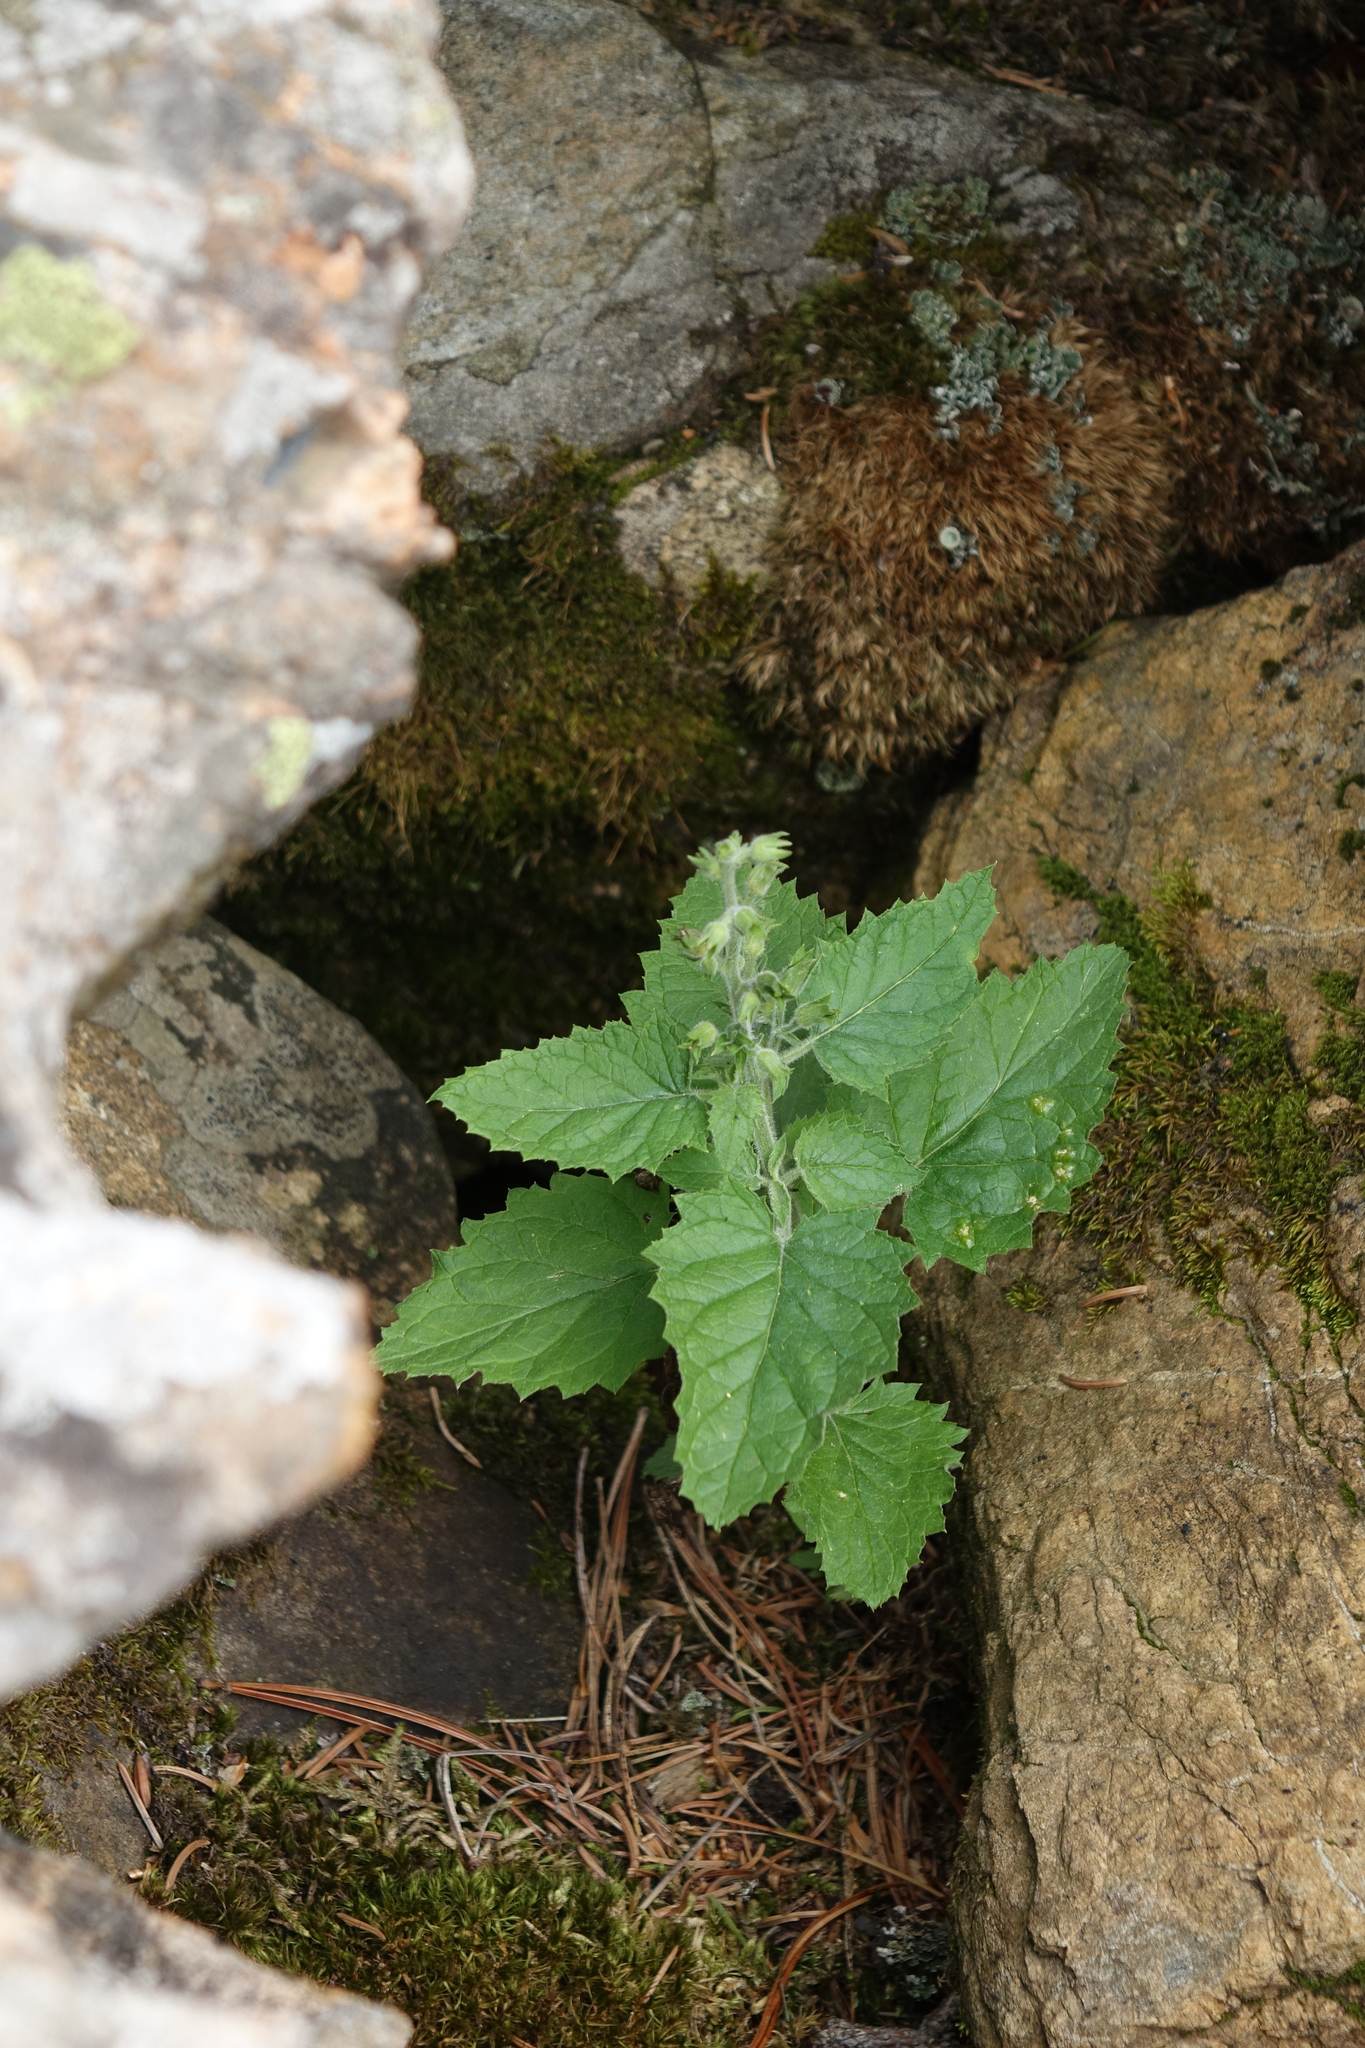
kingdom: Plantae
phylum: Tracheophyta
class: Magnoliopsida
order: Lamiales
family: Scrophulariaceae
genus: Scrophularia
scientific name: Scrophularia altaica
